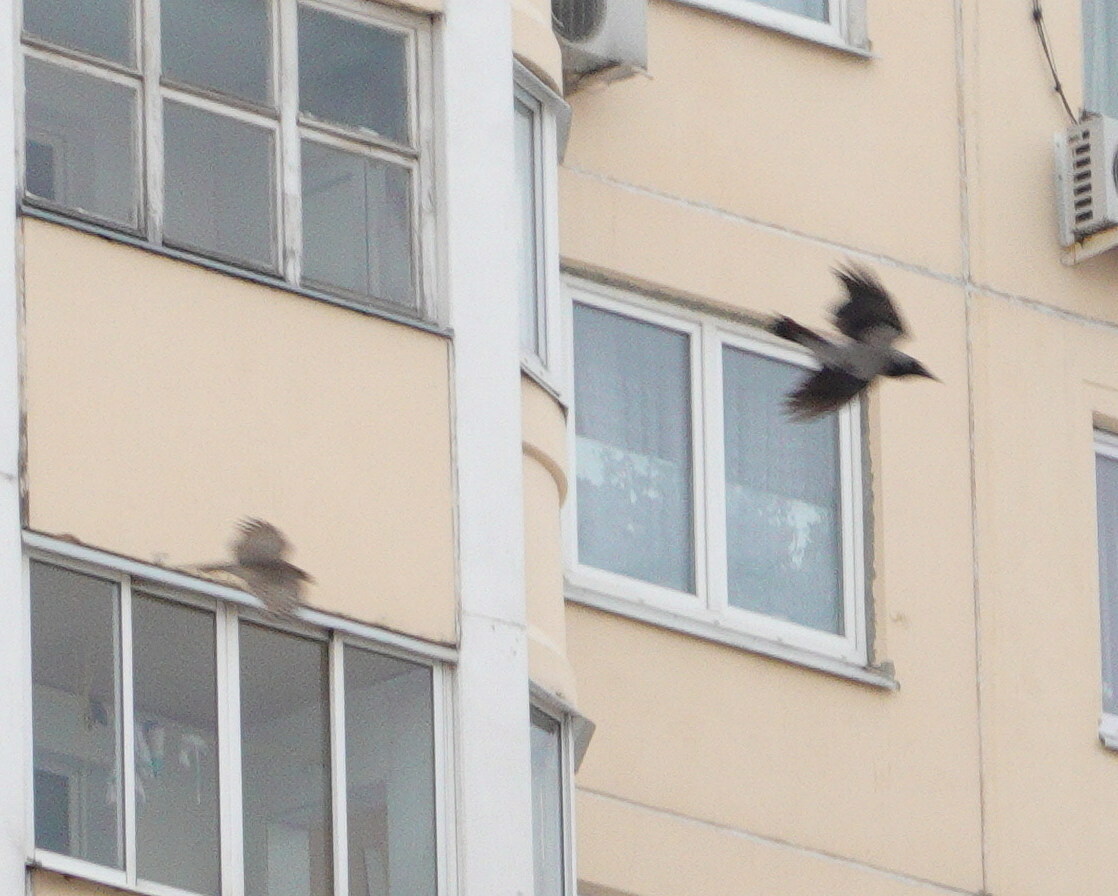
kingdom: Animalia
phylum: Chordata
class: Aves
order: Accipitriformes
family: Accipitridae
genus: Accipiter
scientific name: Accipiter nisus
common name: Eurasian sparrowhawk
